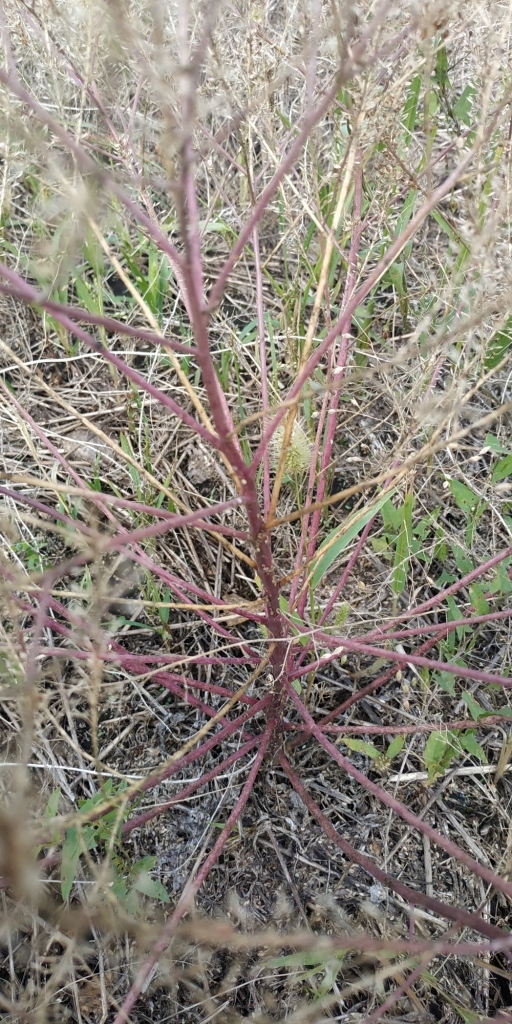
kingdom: Plantae
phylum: Tracheophyta
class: Magnoliopsida
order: Brassicales
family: Brassicaceae
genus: Lepidium
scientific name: Lepidium ruderale
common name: Narrow-leaved pepperwort
